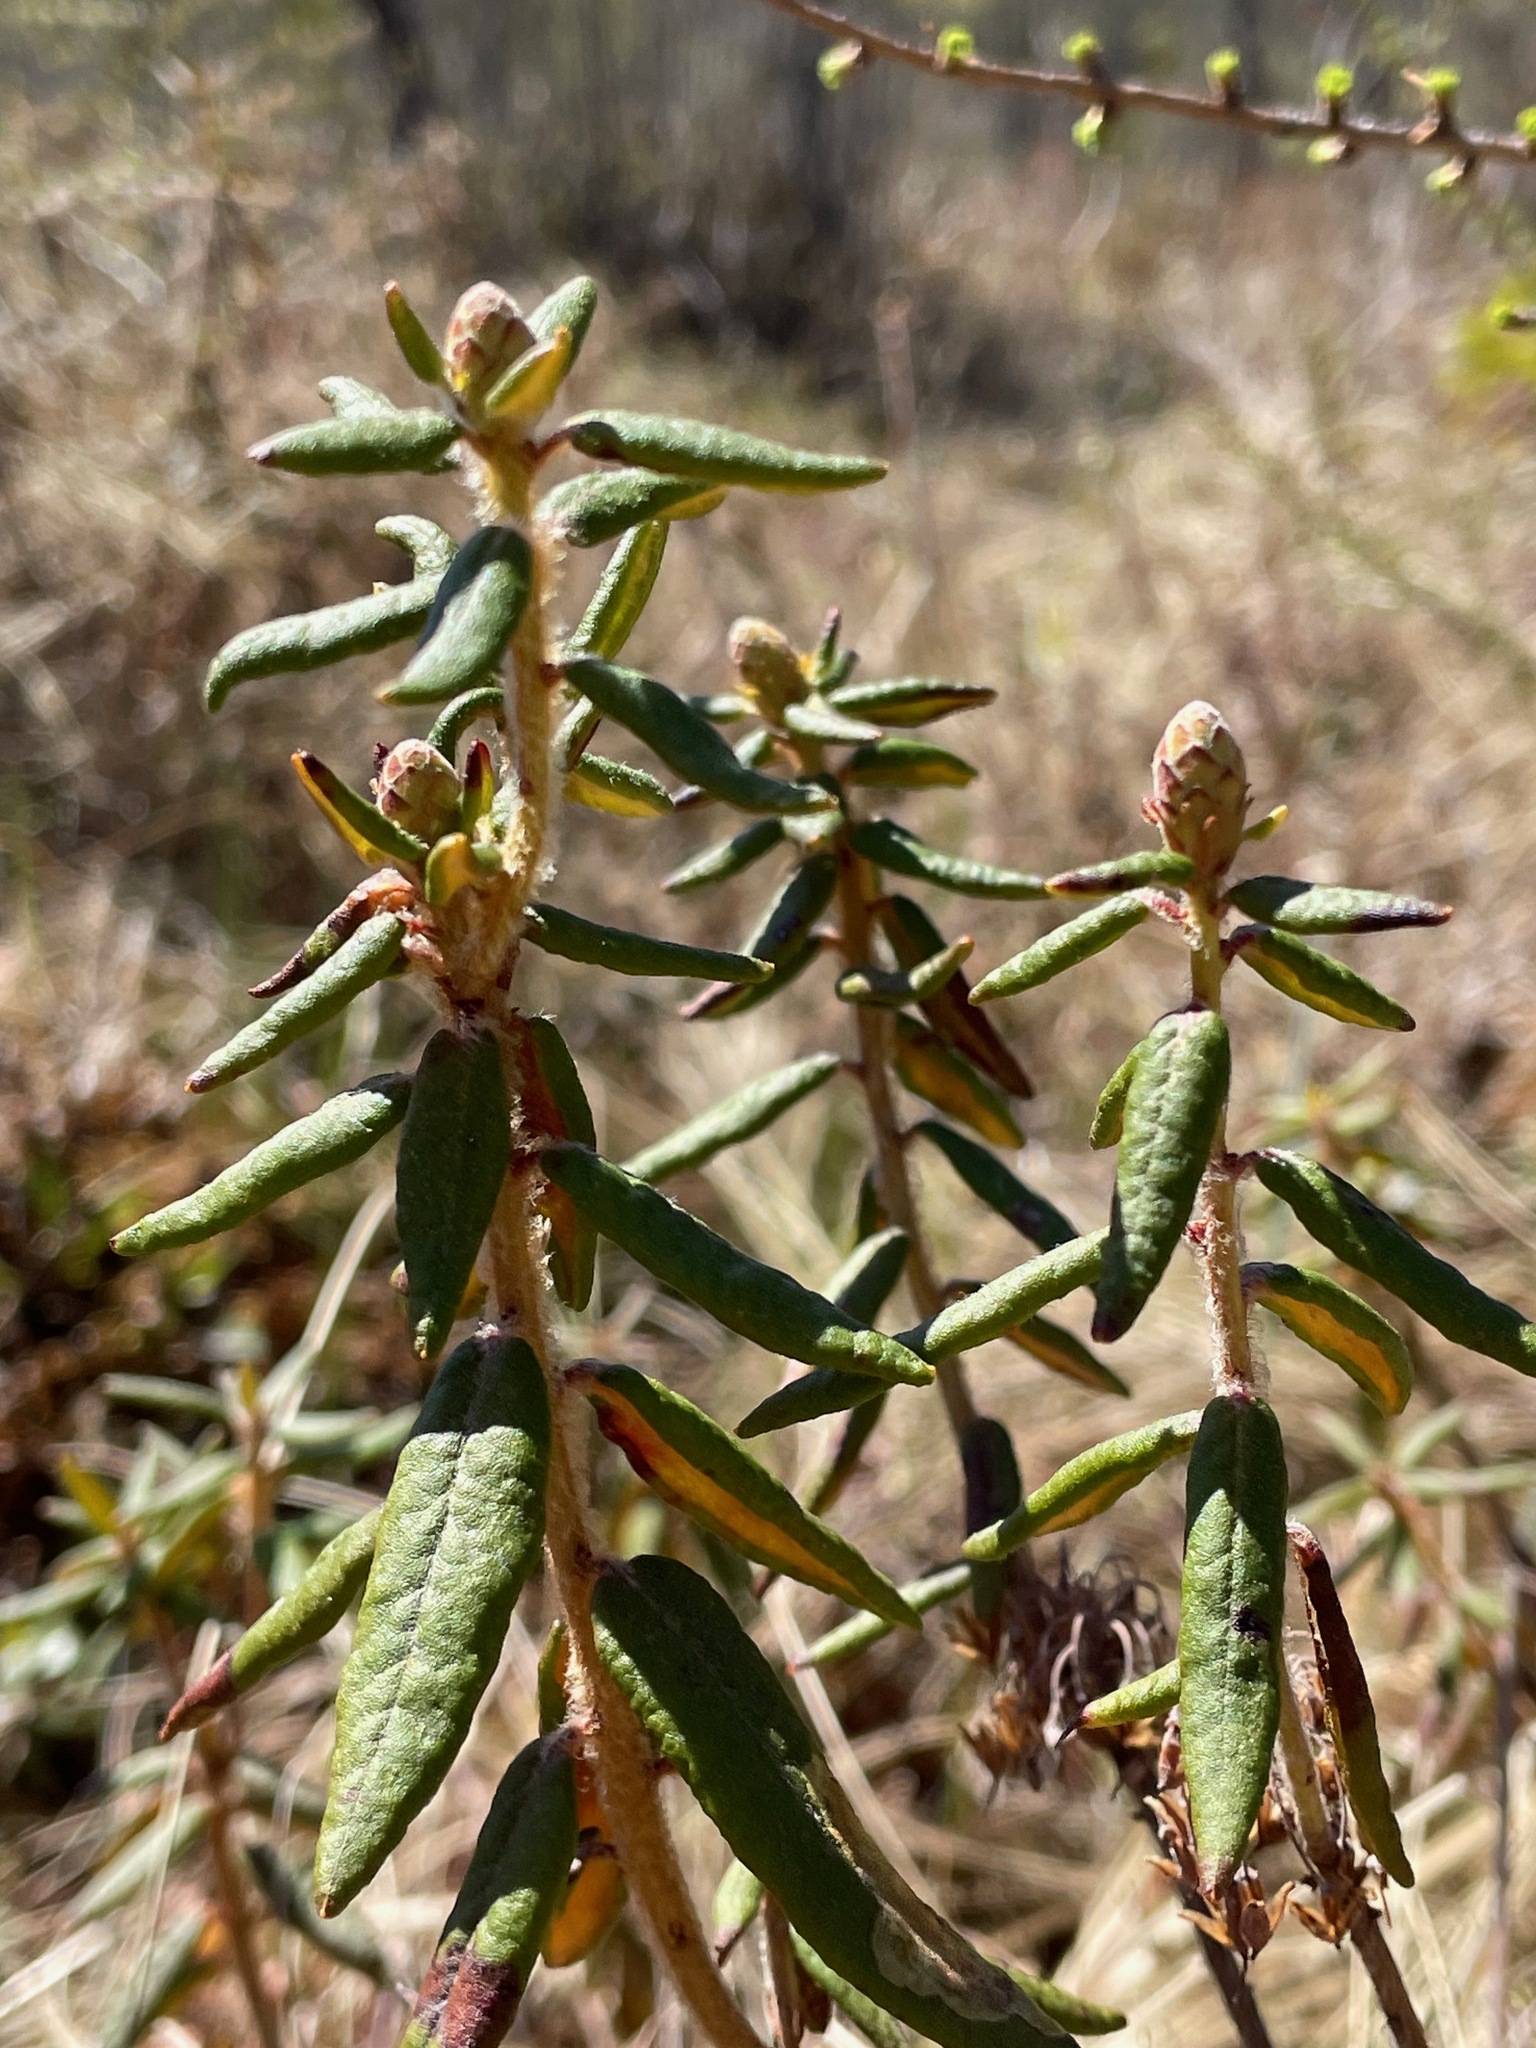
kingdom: Plantae
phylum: Tracheophyta
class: Magnoliopsida
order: Ericales
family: Ericaceae
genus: Rhododendron
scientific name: Rhododendron groenlandicum
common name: Bog labrador tea
